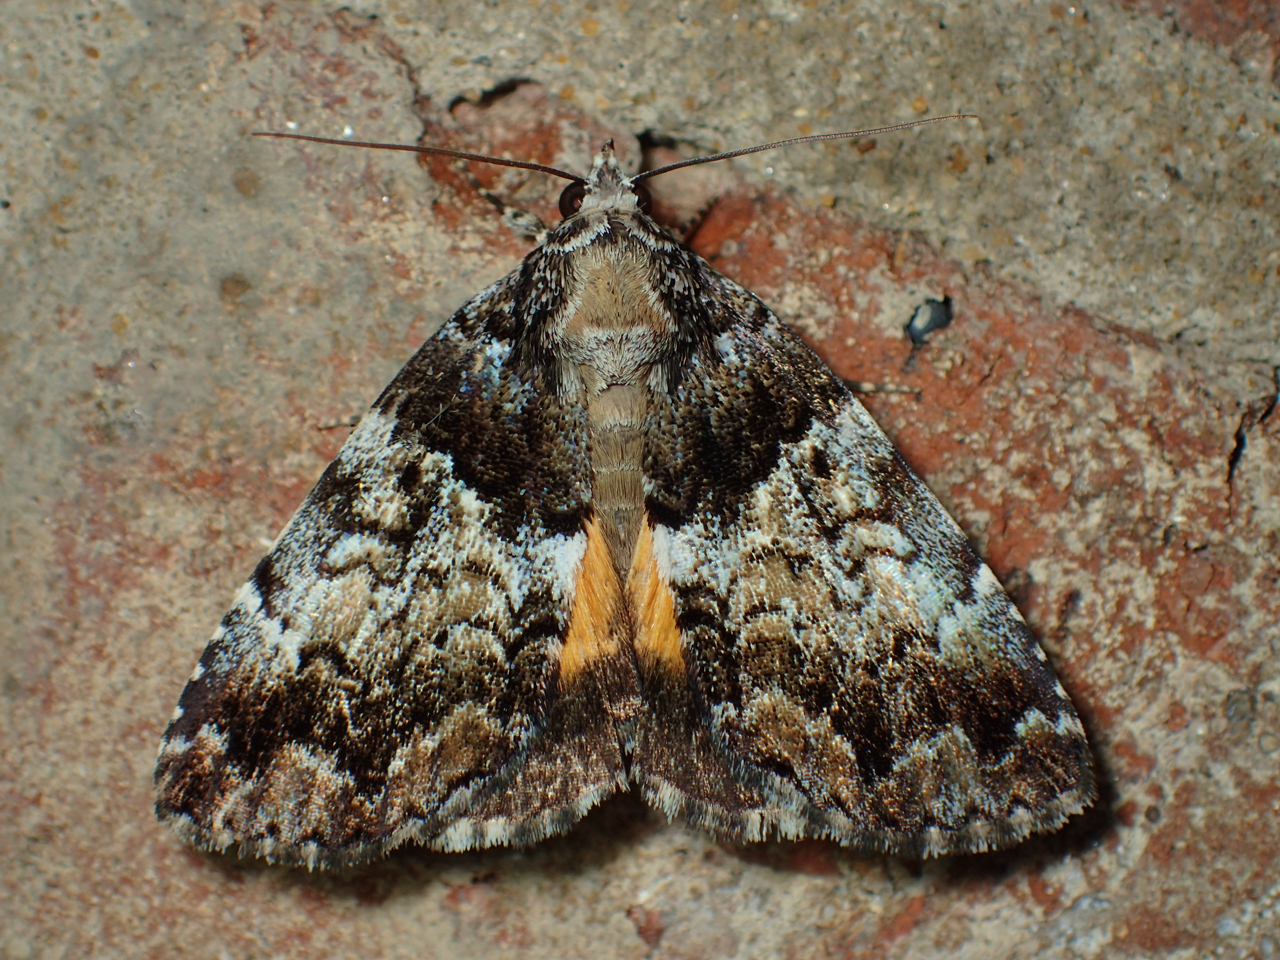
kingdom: Animalia
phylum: Arthropoda
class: Insecta
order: Lepidoptera
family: Erebidae
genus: Allotria
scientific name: Allotria elonympha
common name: False underwing
